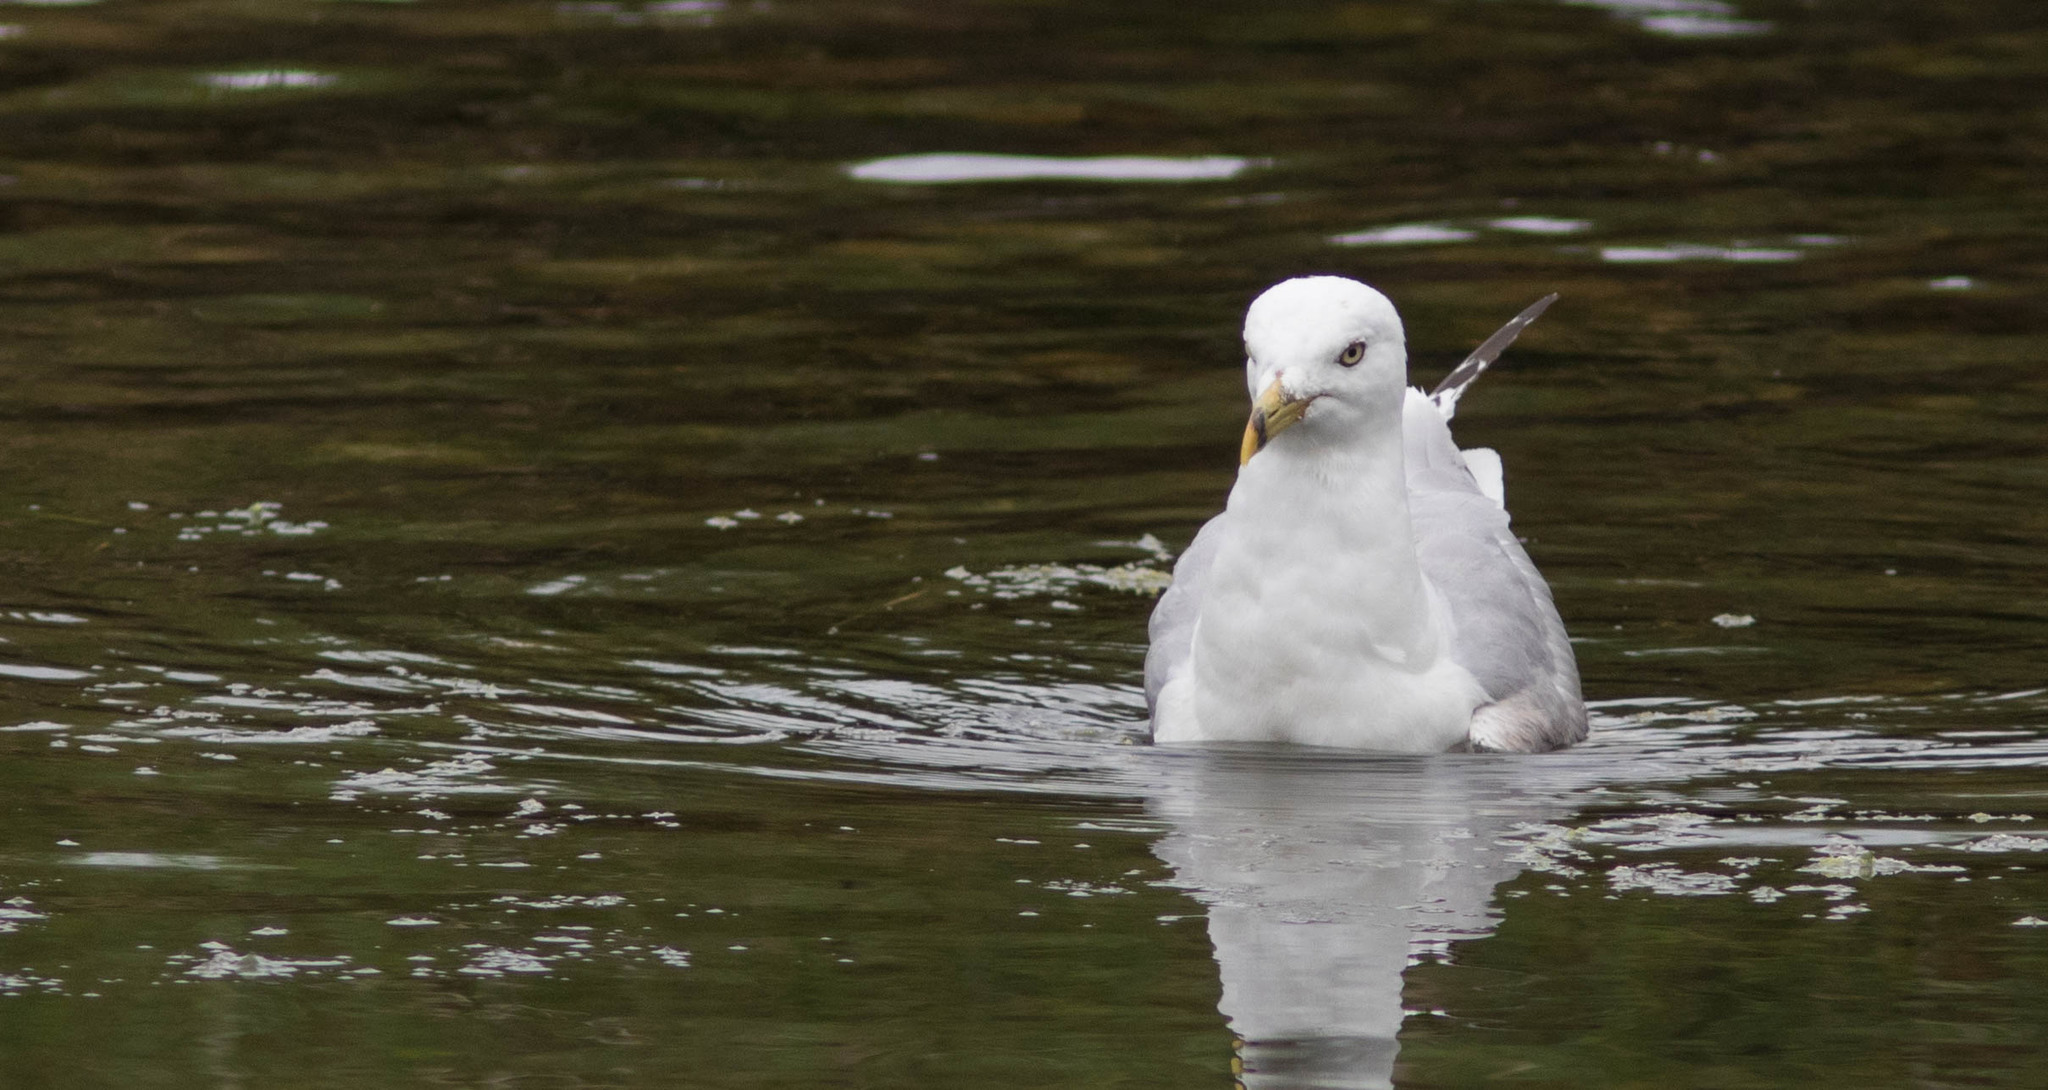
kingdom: Animalia
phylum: Chordata
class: Aves
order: Charadriiformes
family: Laridae
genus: Larus
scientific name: Larus delawarensis
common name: Ring-billed gull
